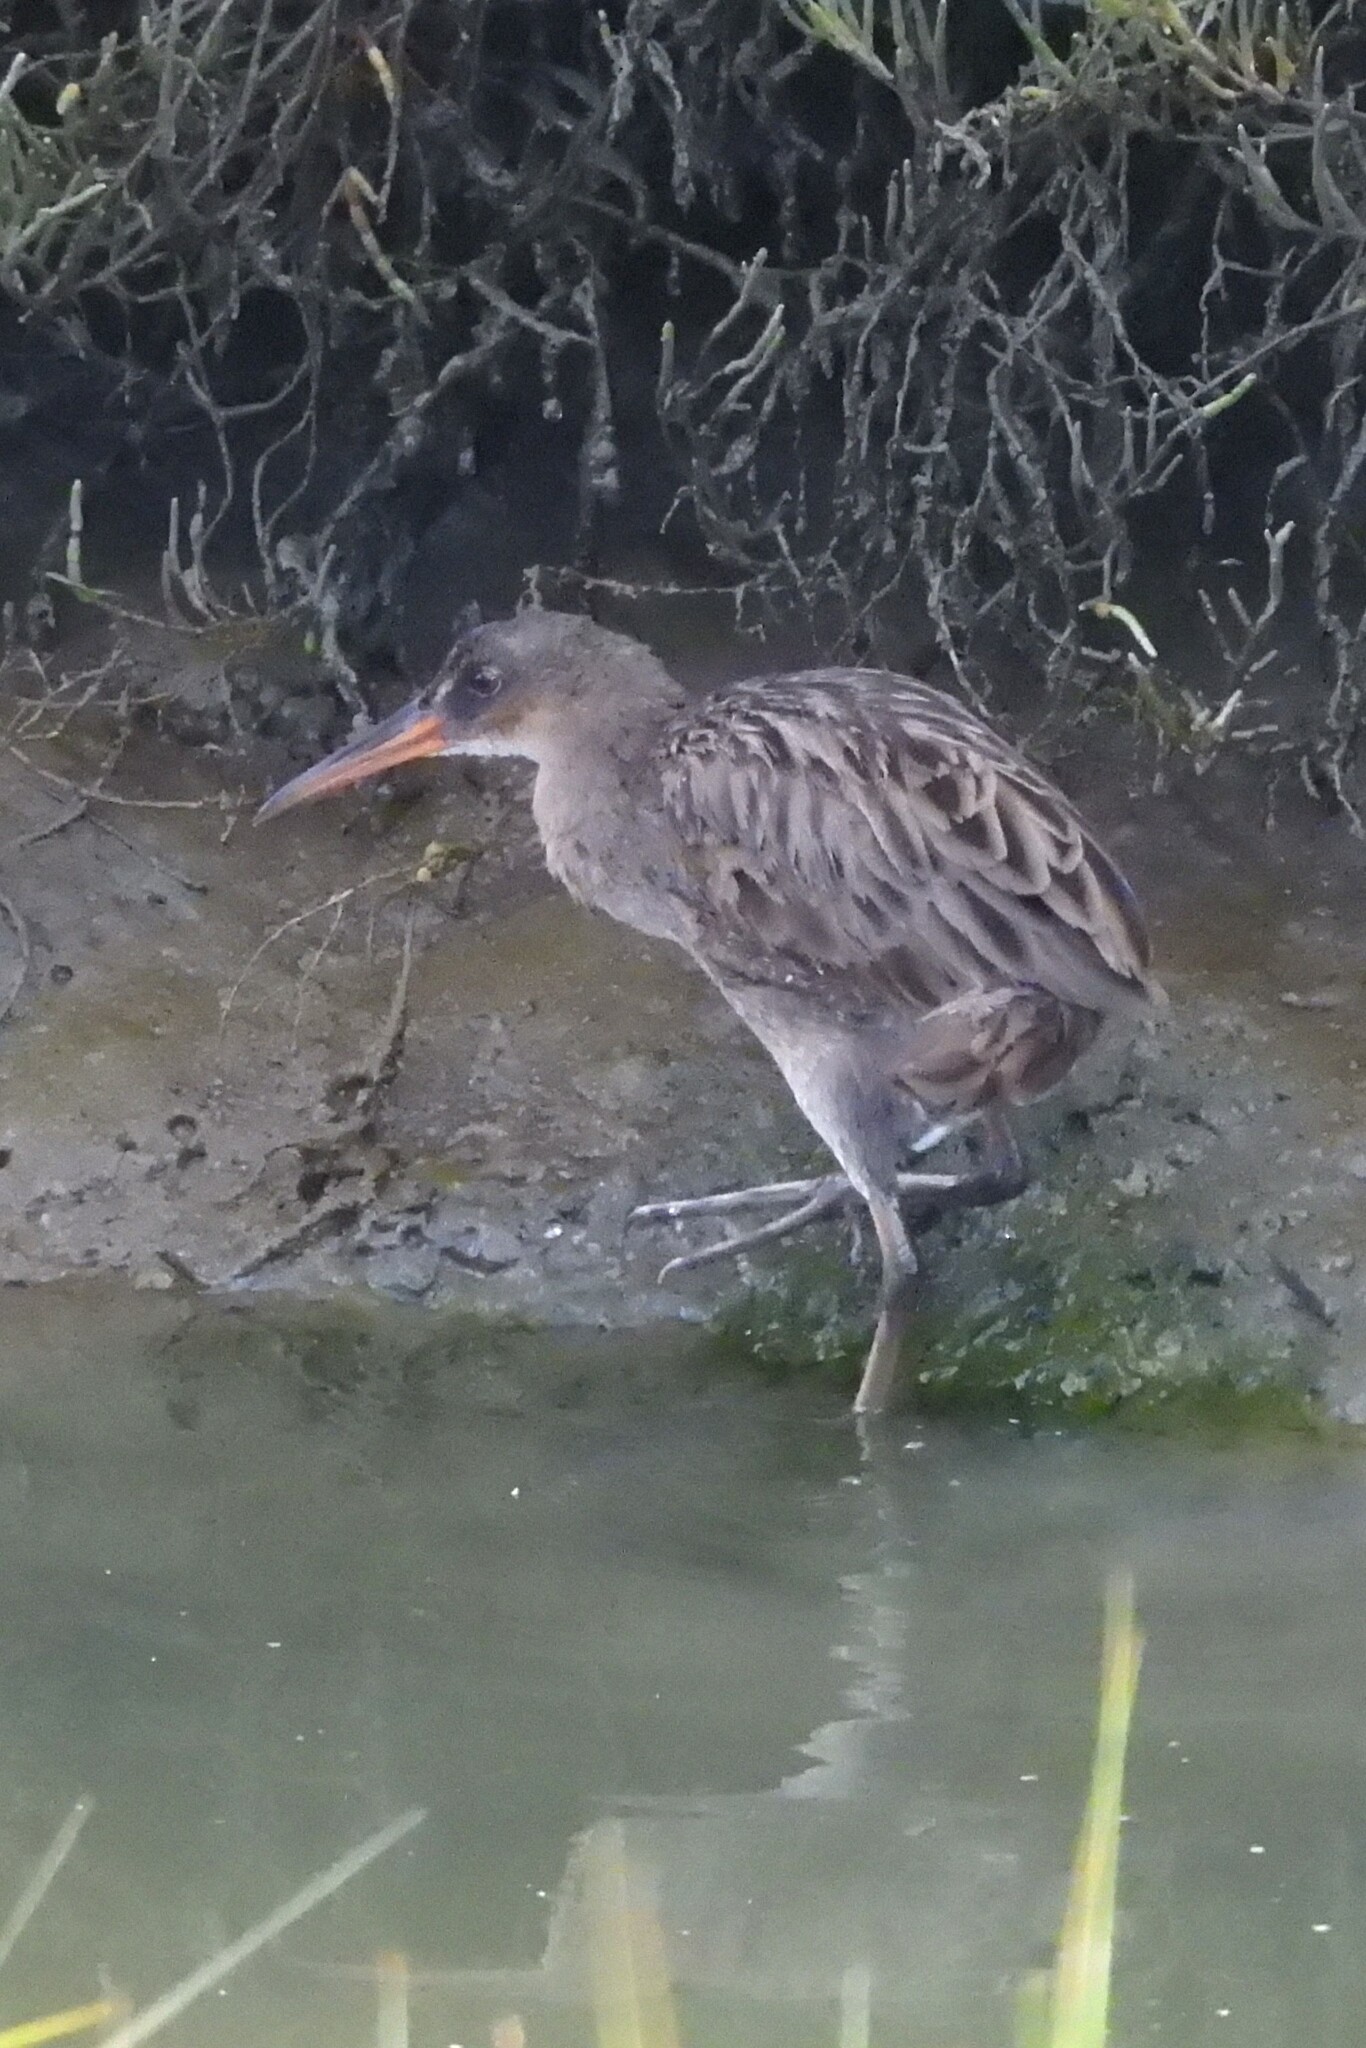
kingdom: Animalia
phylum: Chordata
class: Aves
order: Gruiformes
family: Rallidae
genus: Rallus
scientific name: Rallus obsoletus
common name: Ridgway's rail
